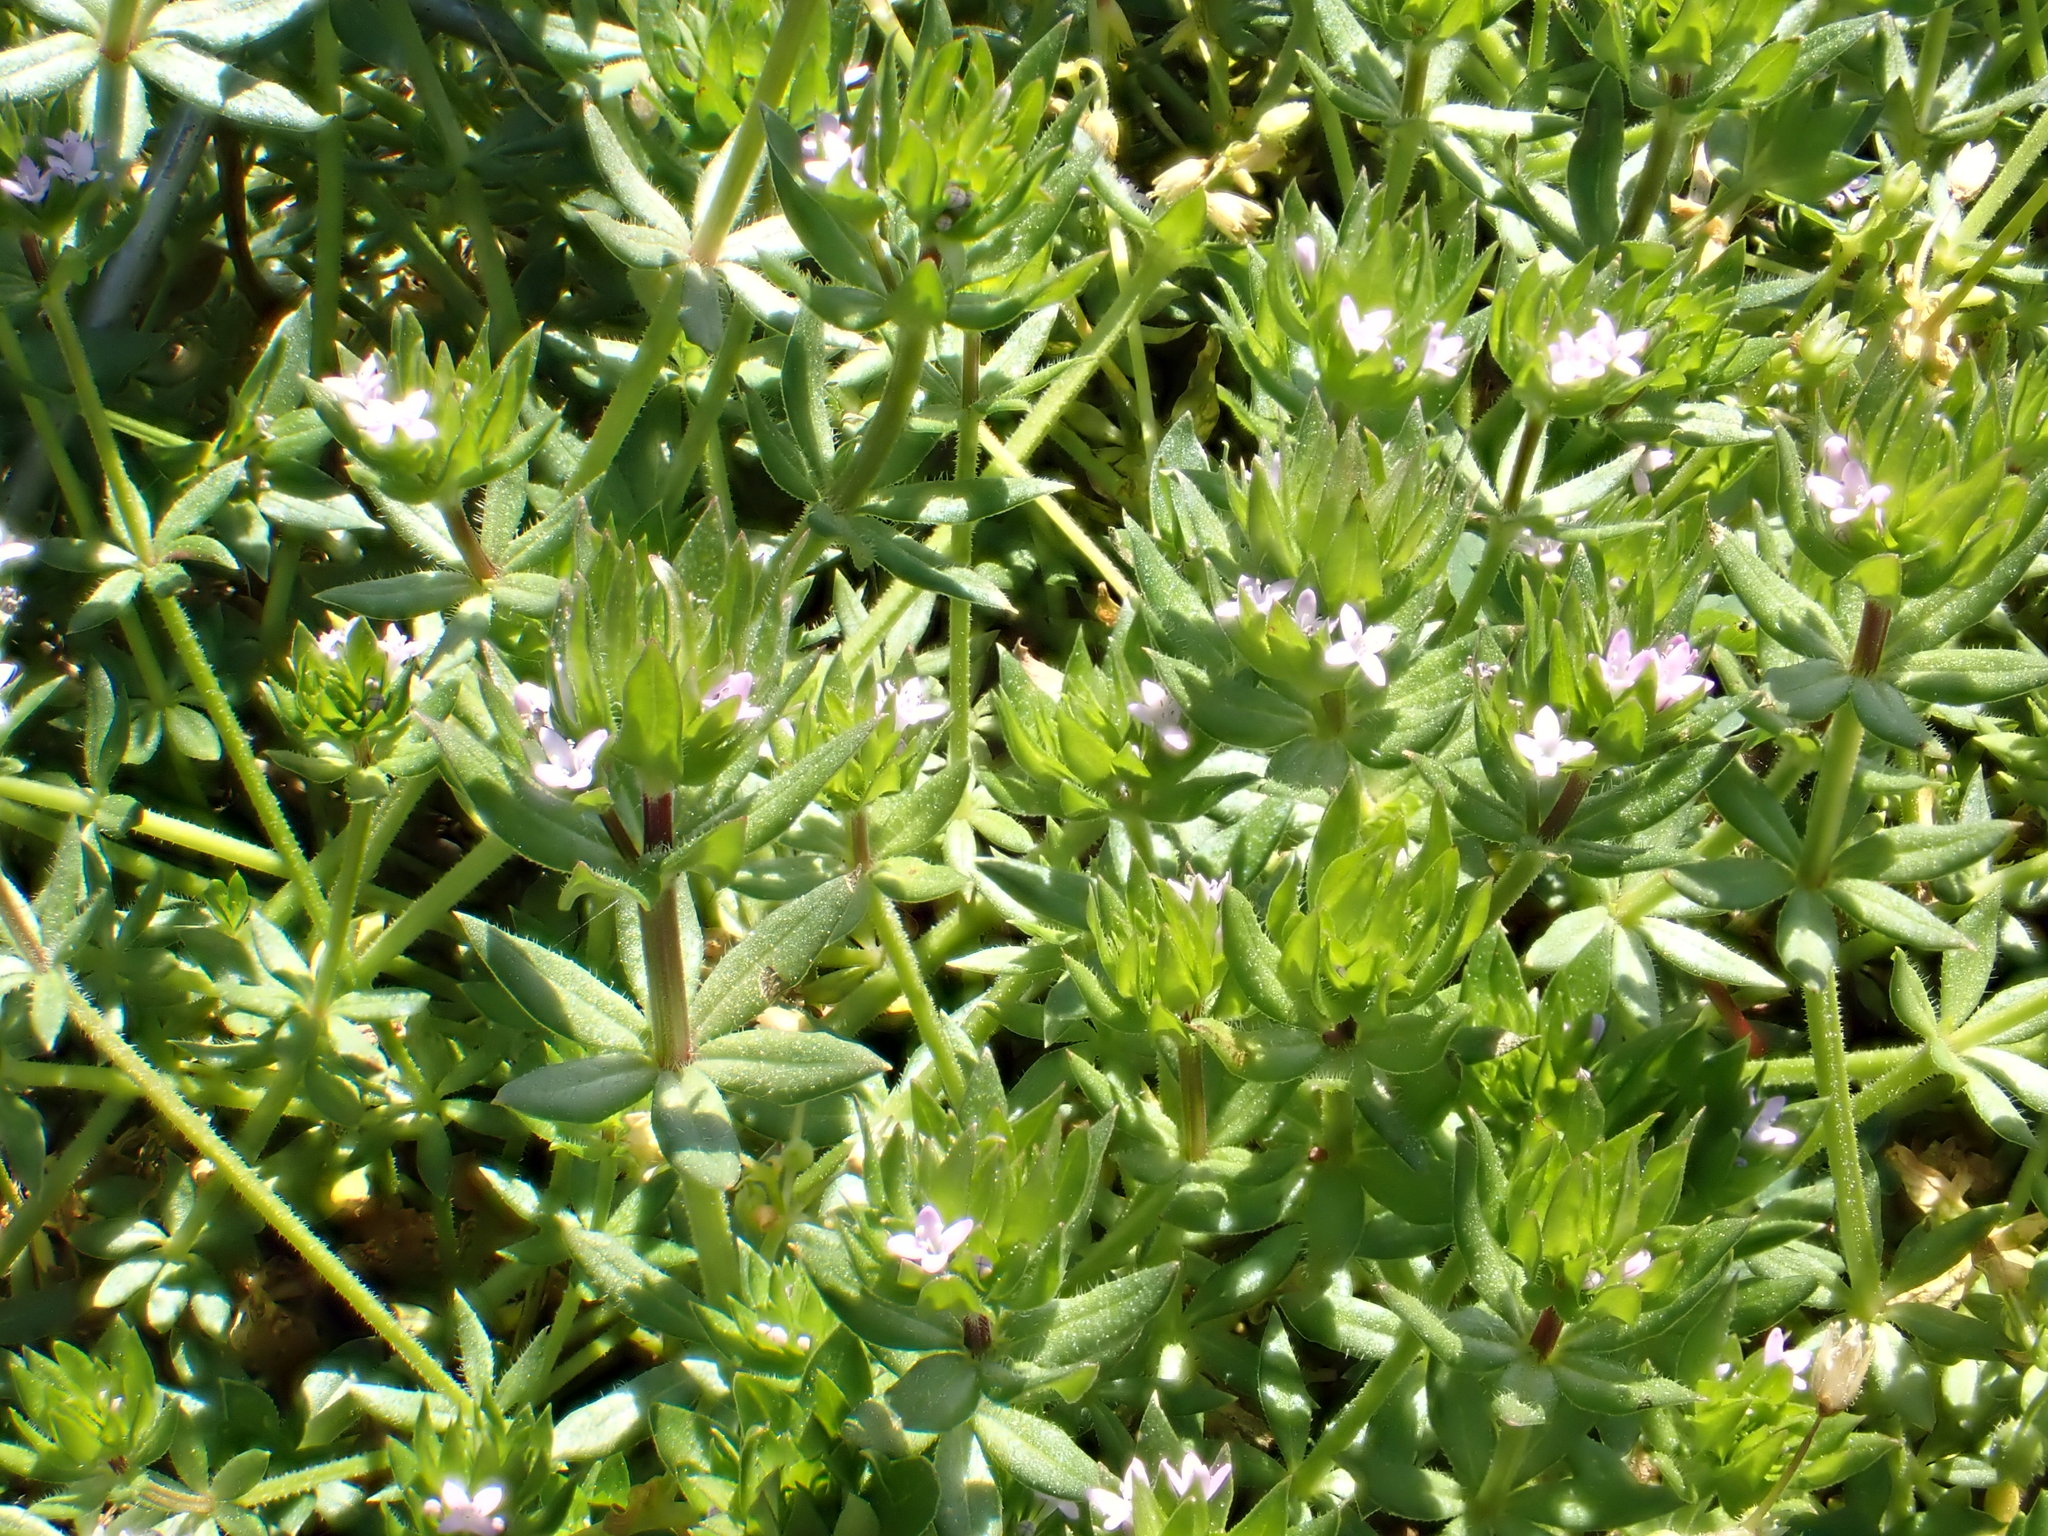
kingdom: Plantae
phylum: Tracheophyta
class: Magnoliopsida
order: Gentianales
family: Rubiaceae
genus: Sherardia
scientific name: Sherardia arvensis
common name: Field madder
